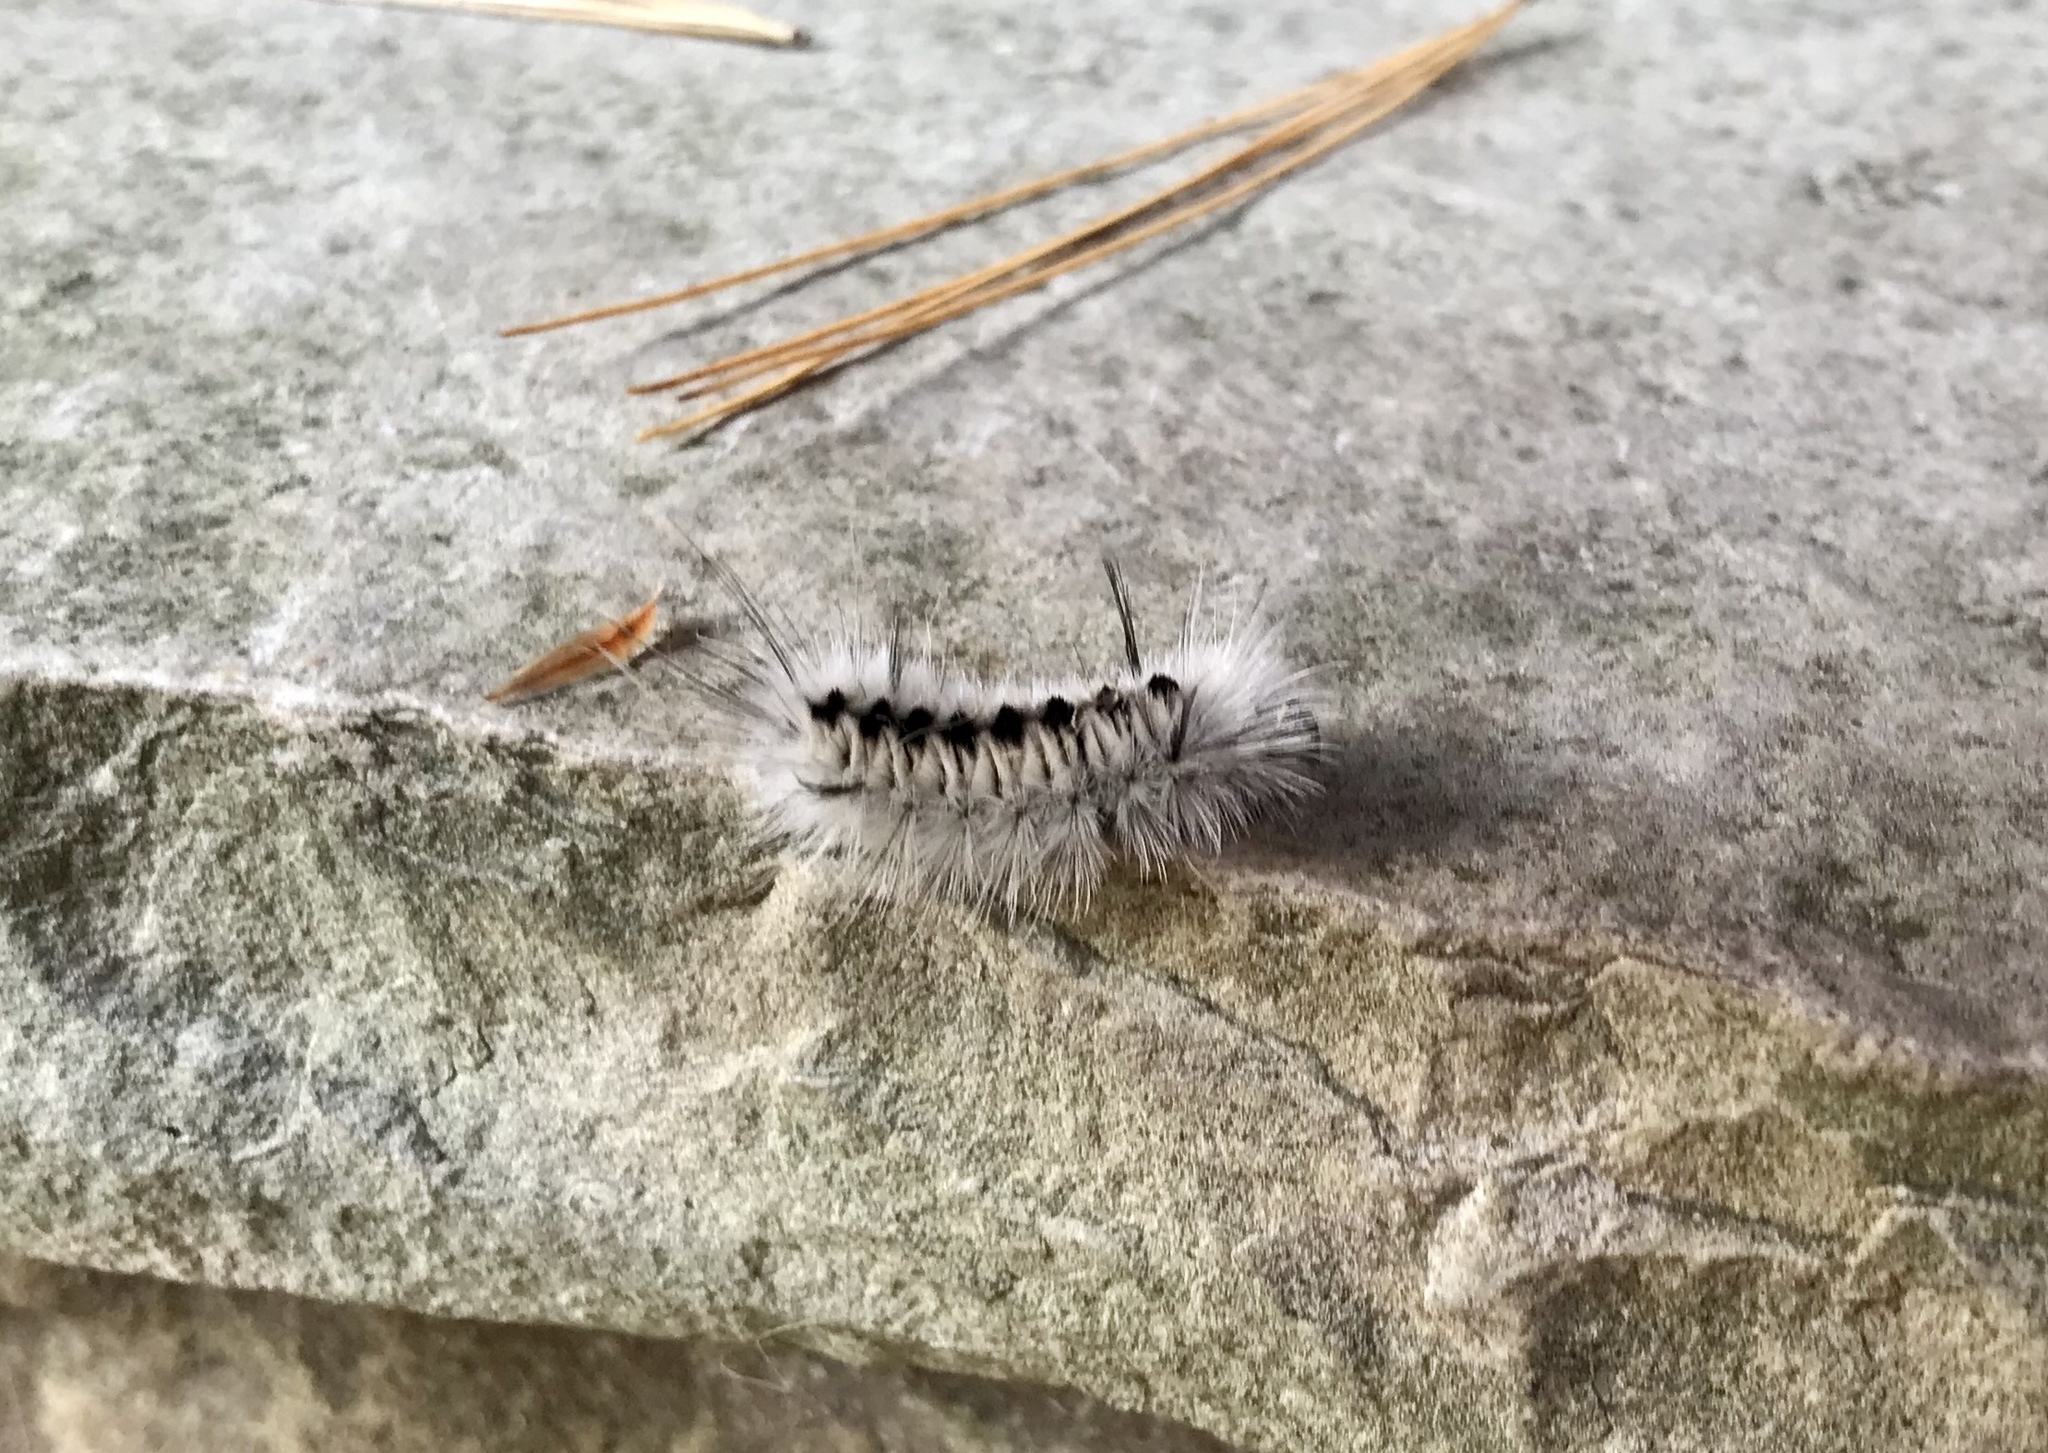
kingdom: Animalia
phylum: Arthropoda
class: Insecta
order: Lepidoptera
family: Erebidae
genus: Lophocampa
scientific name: Lophocampa caryae
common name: Hickory tussock moth
